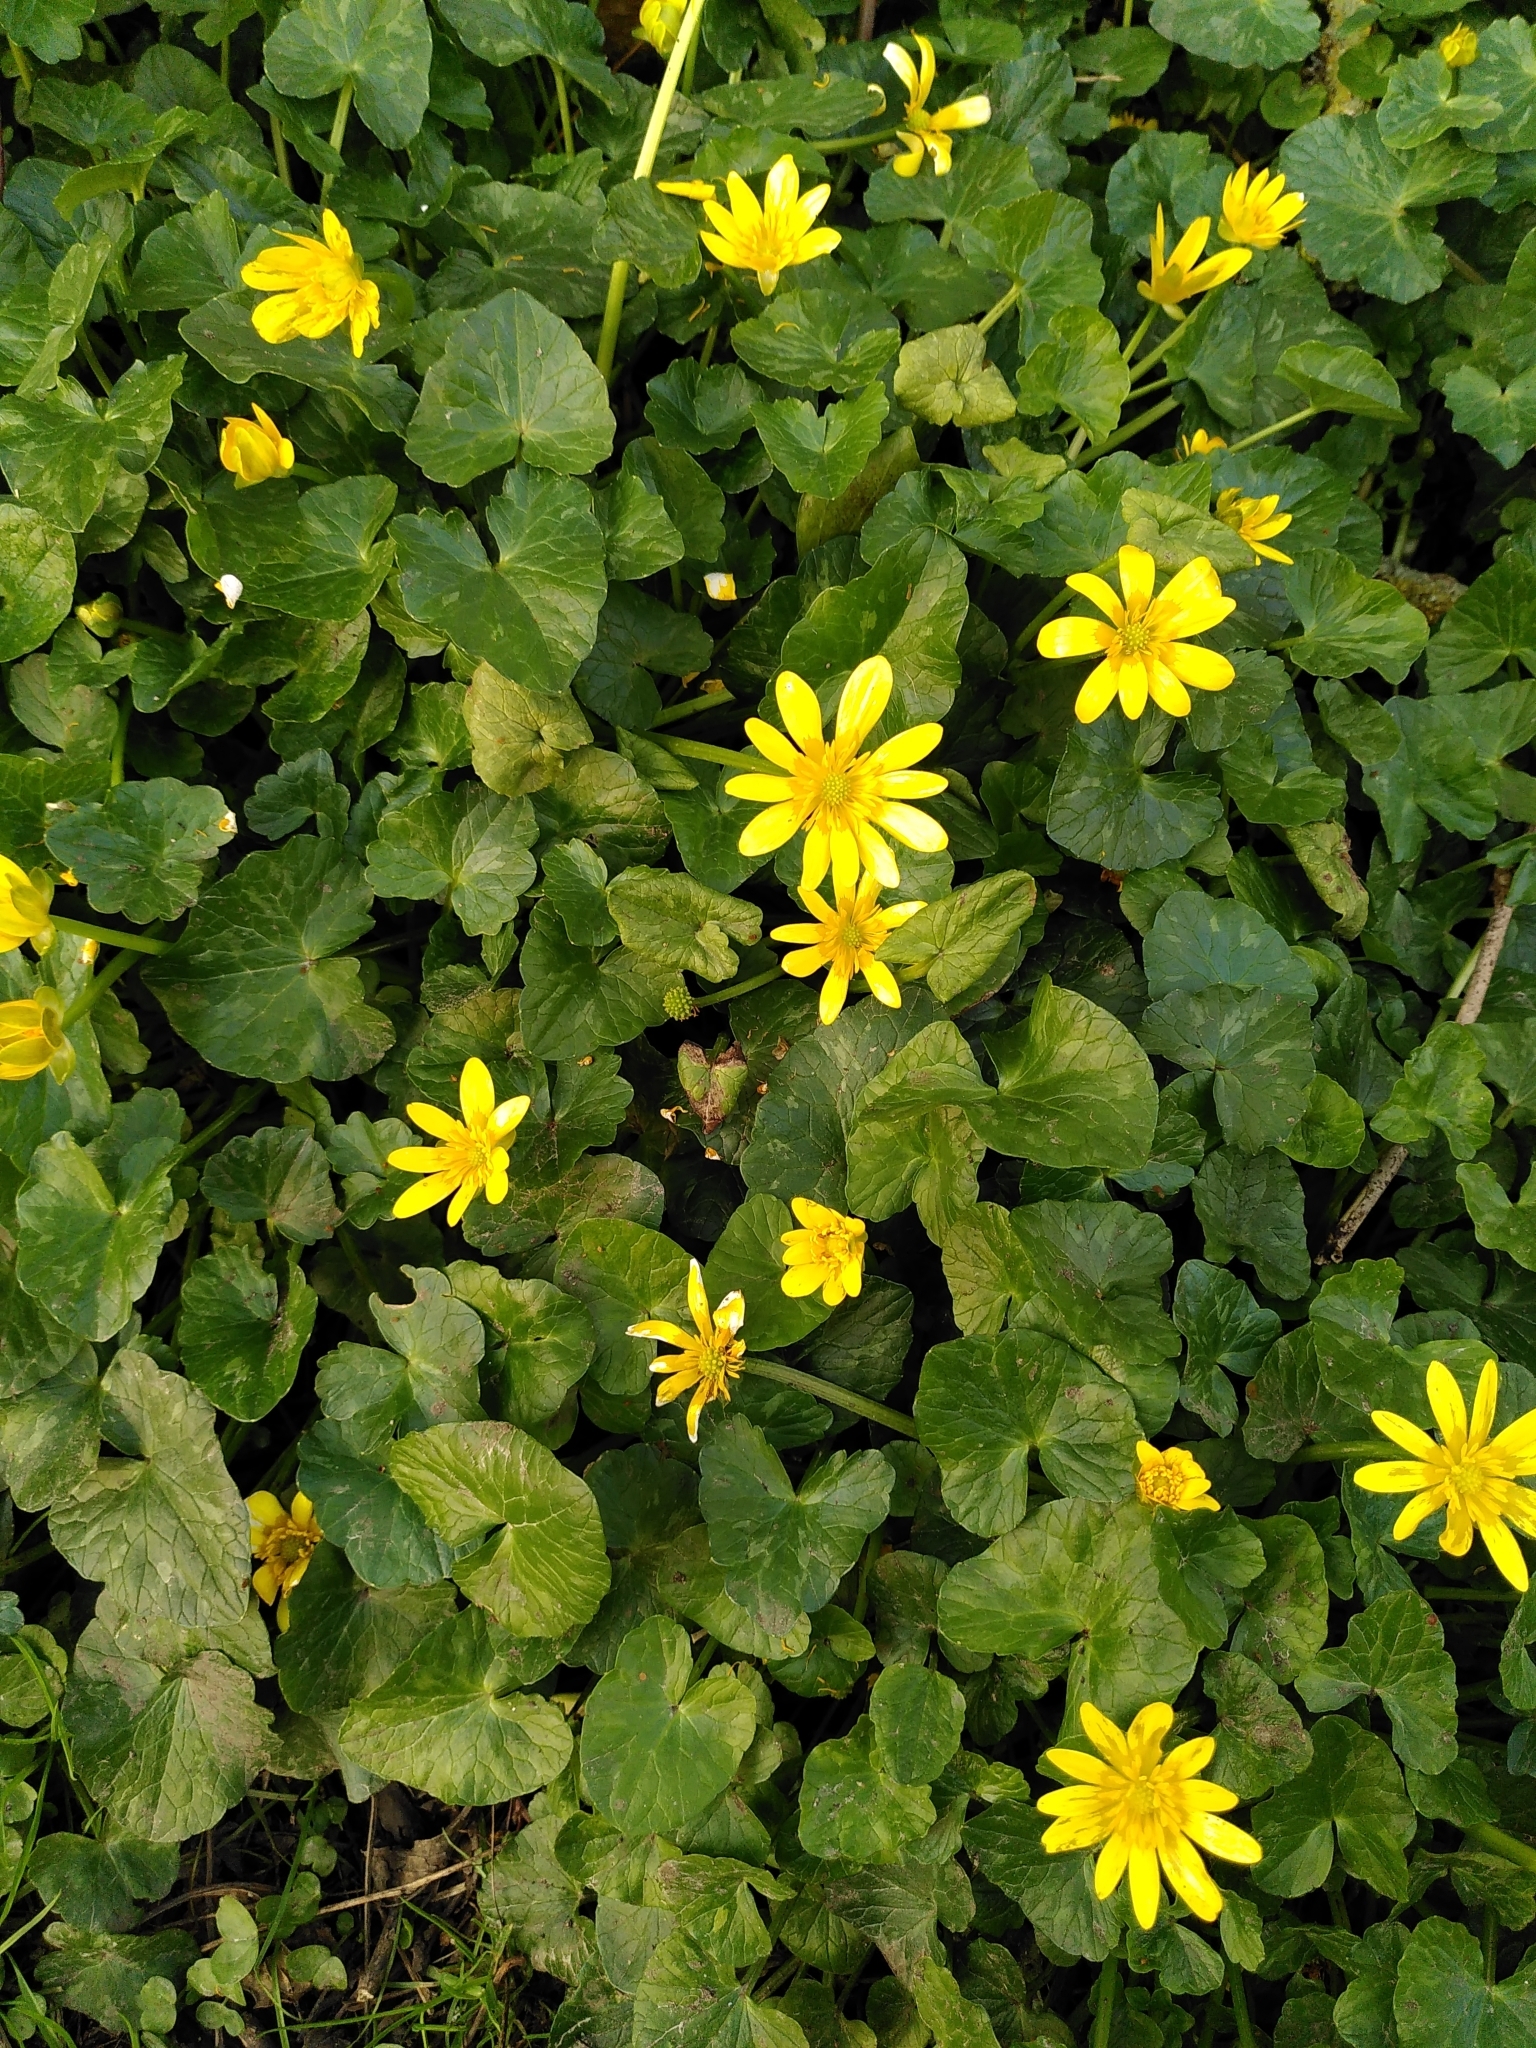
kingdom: Plantae
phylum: Tracheophyta
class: Magnoliopsida
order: Ranunculales
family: Ranunculaceae
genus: Ficaria
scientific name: Ficaria verna
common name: Lesser celandine
